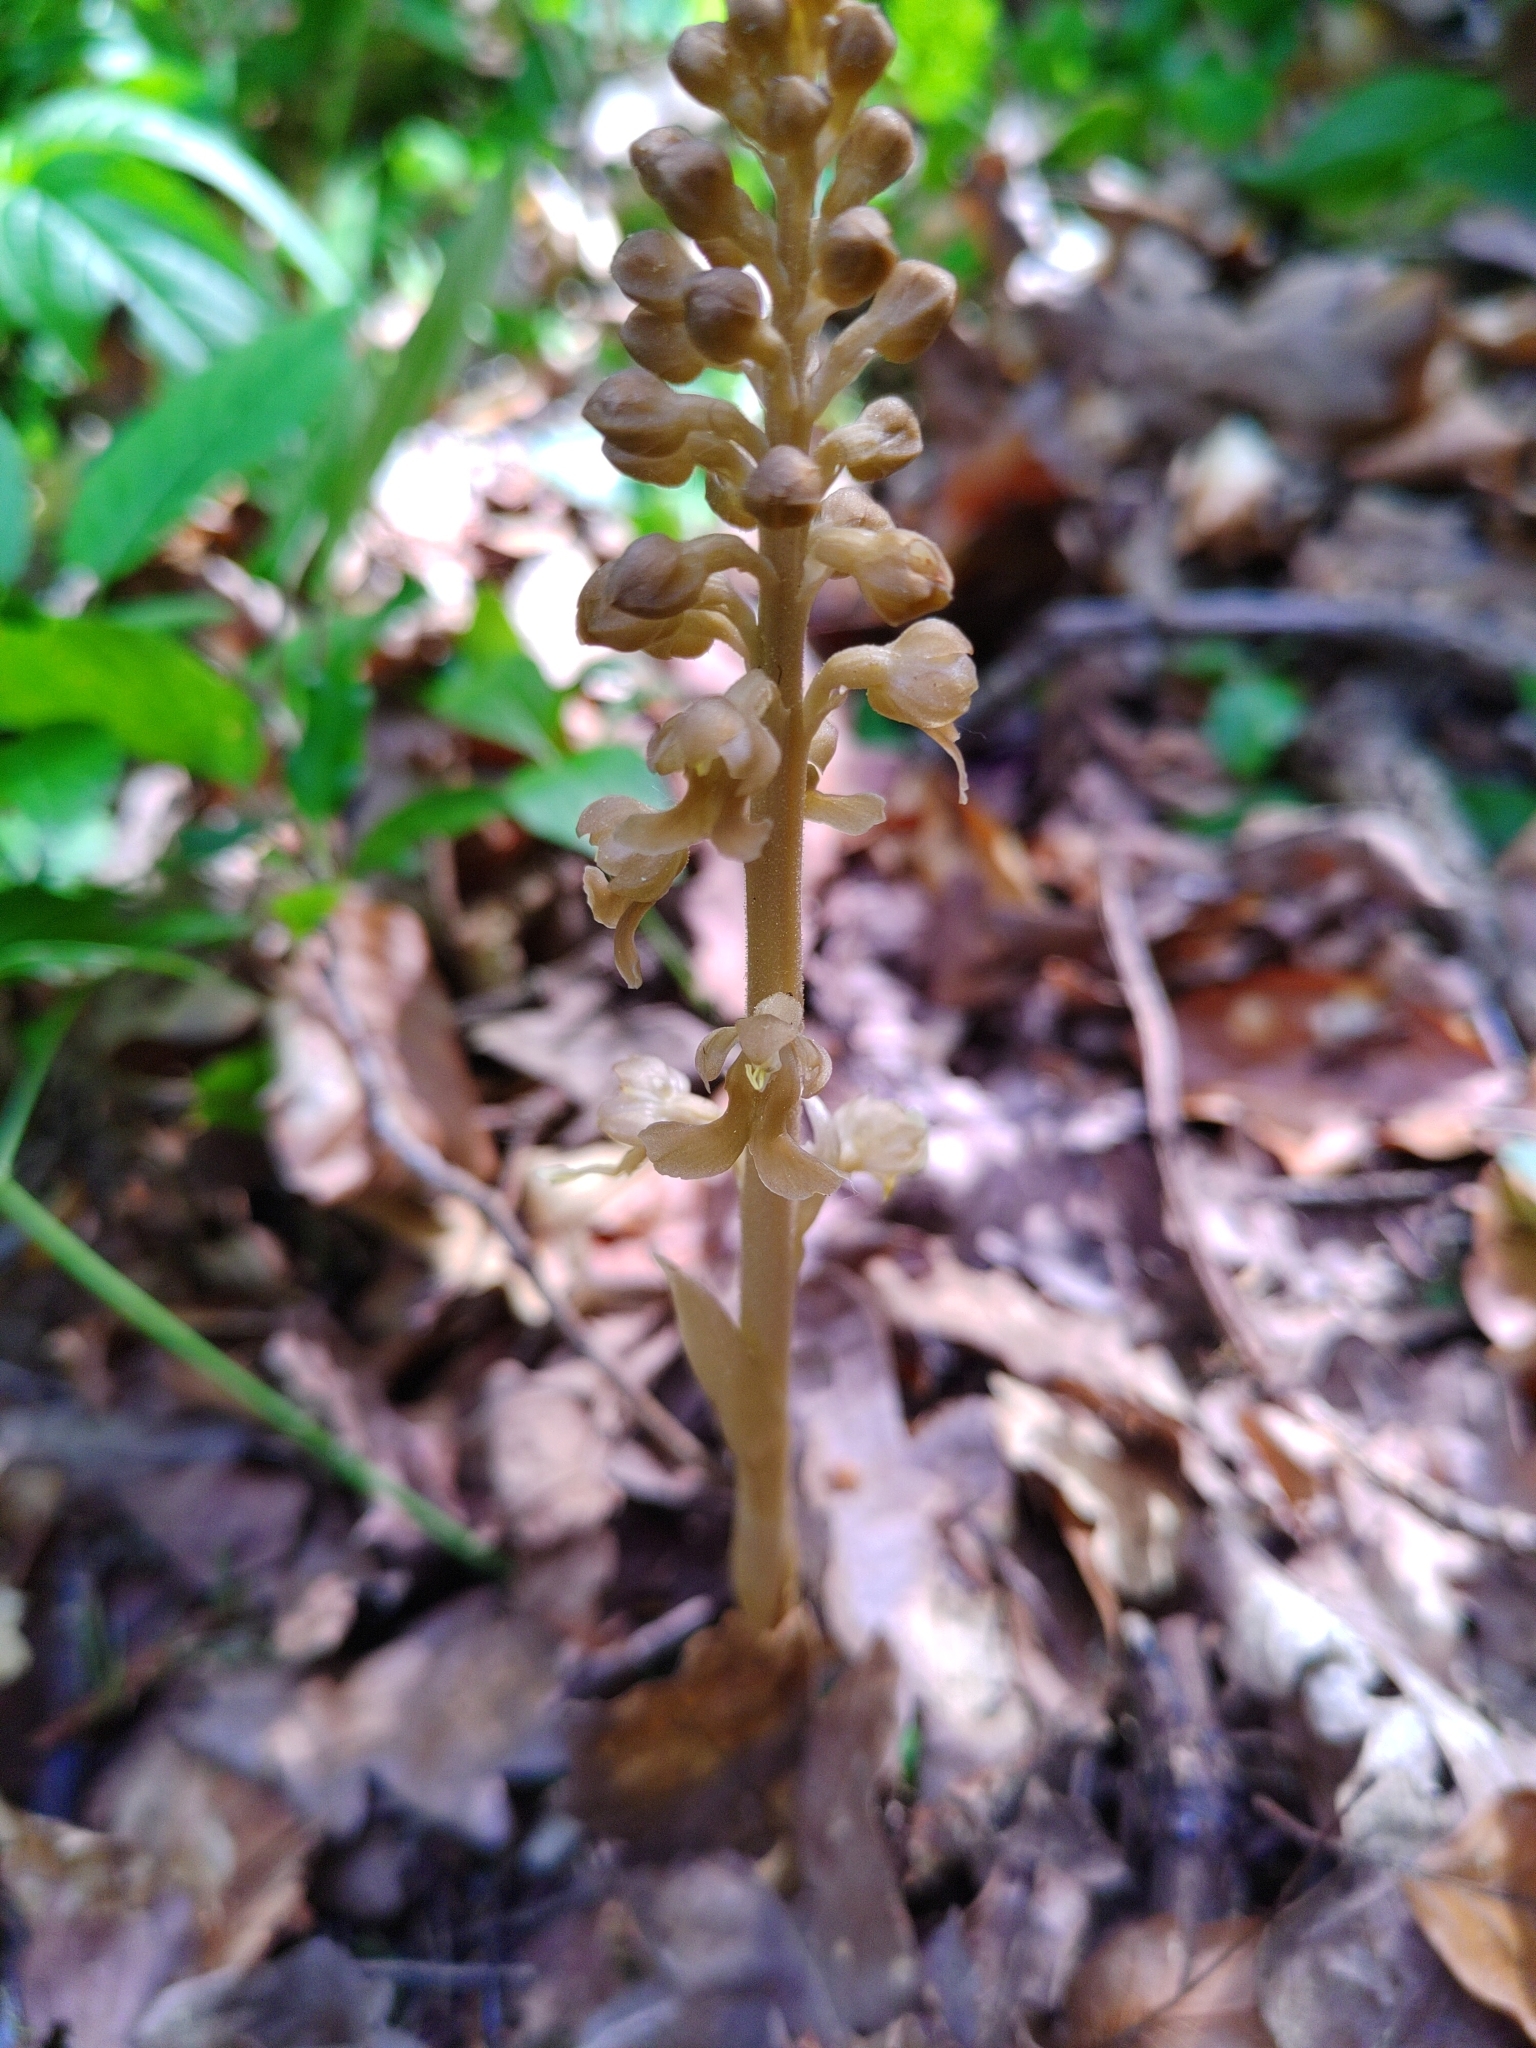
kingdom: Plantae
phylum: Tracheophyta
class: Liliopsida
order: Asparagales
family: Orchidaceae
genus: Neottia
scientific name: Neottia nidus-avis
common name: Bird's-nest orchid
